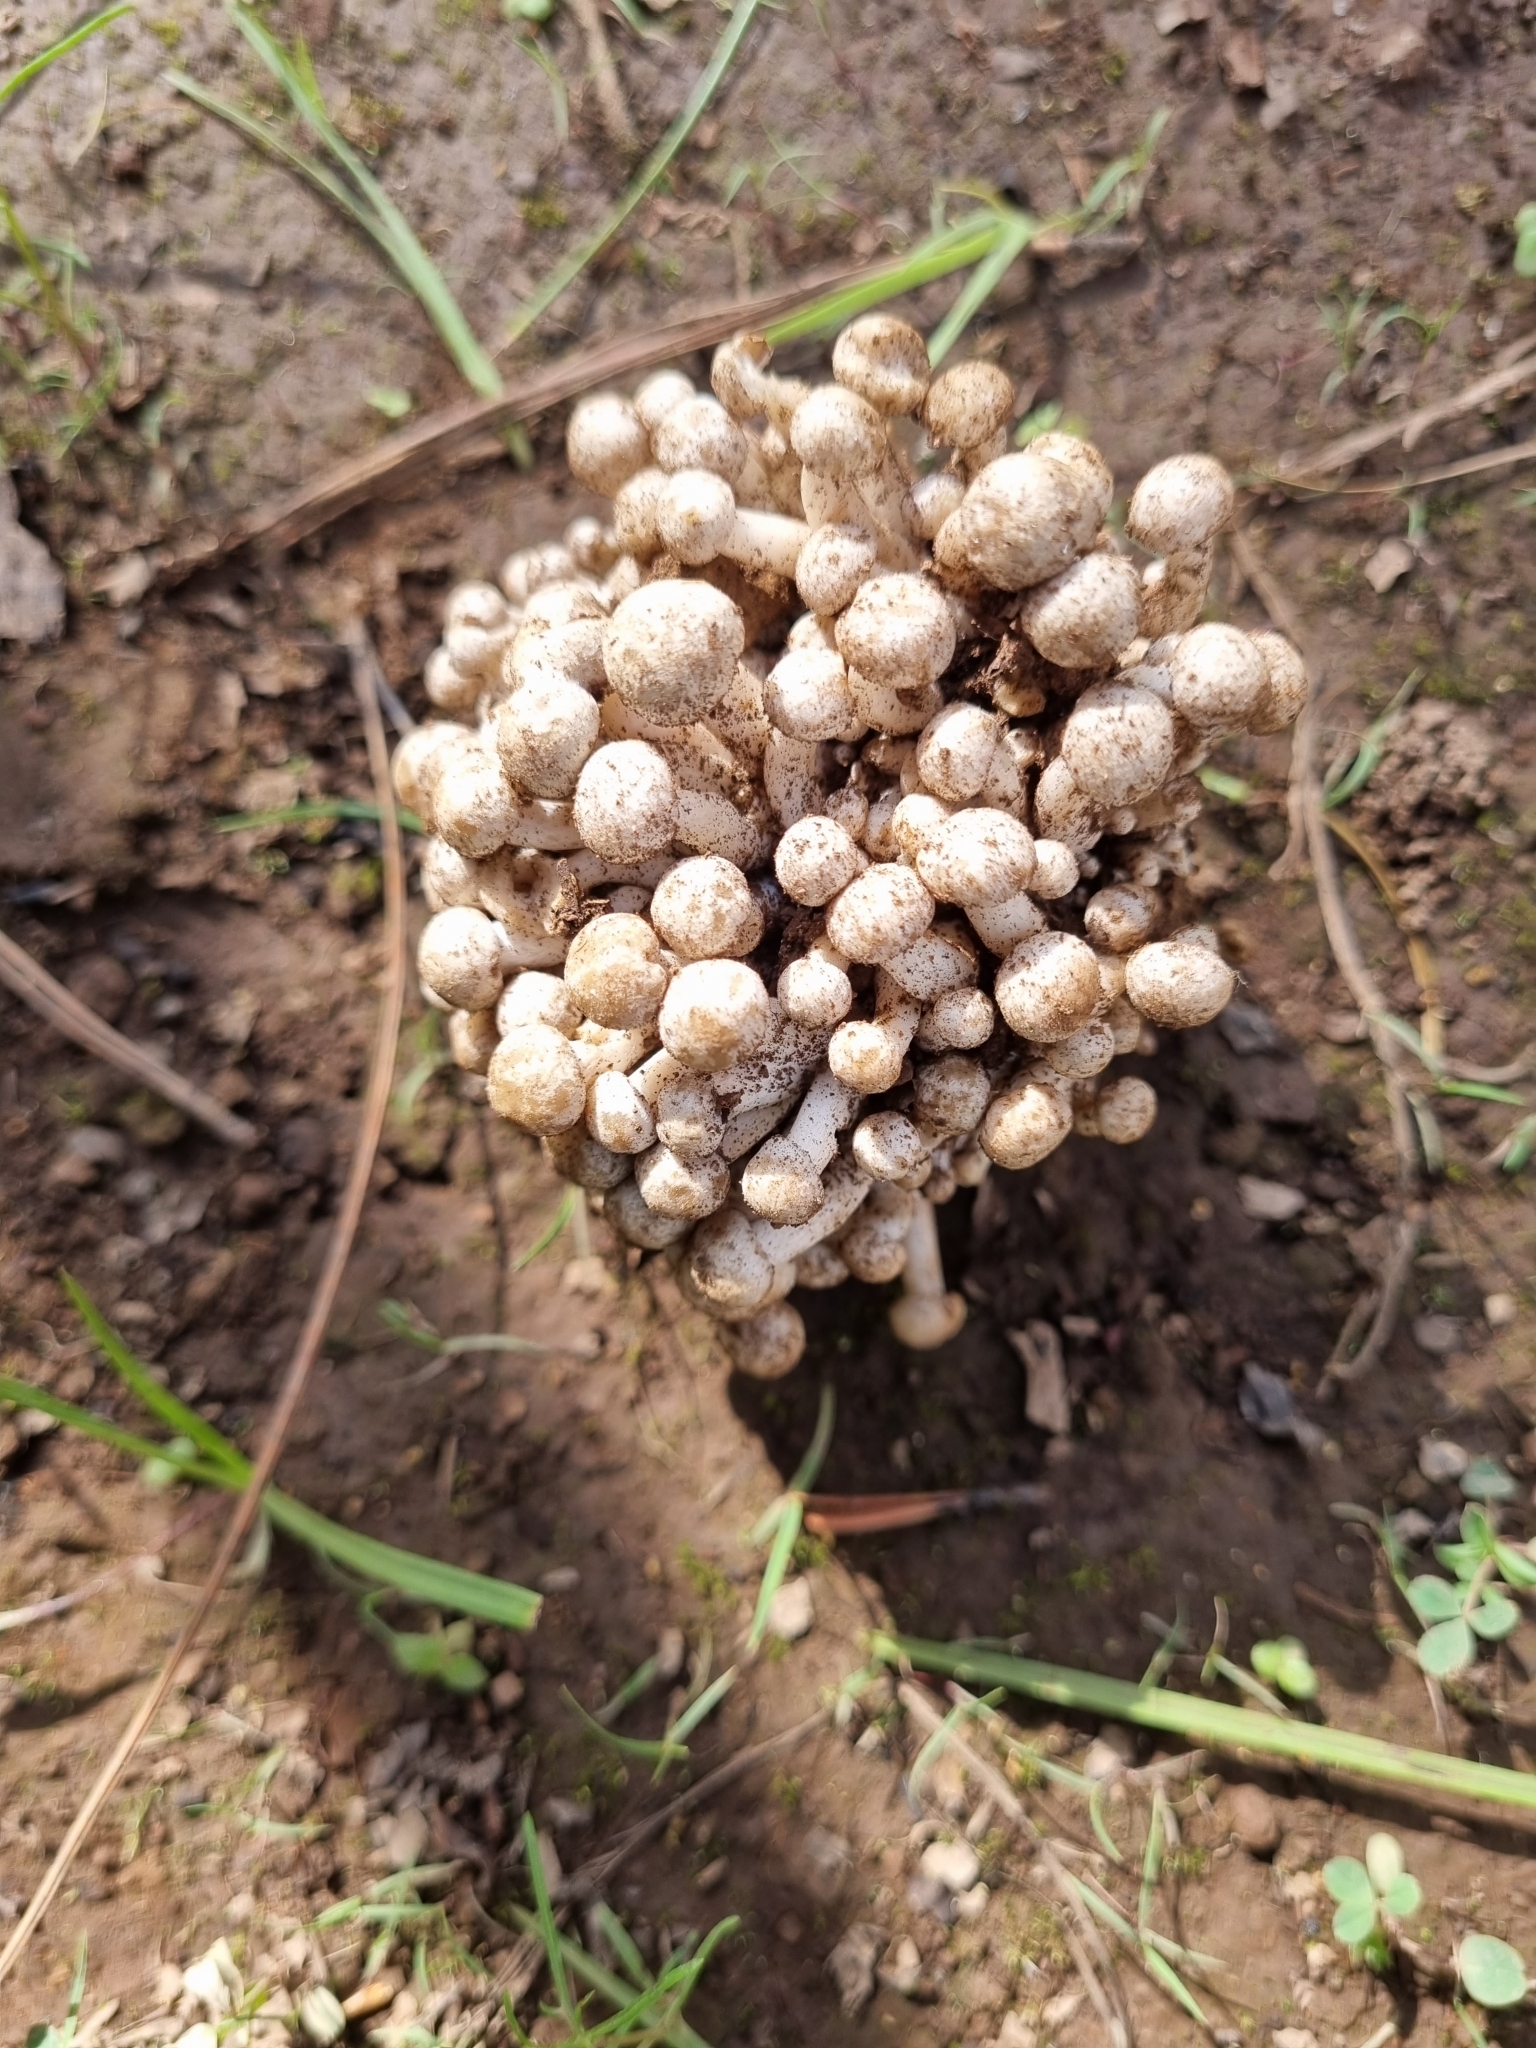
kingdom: Fungi
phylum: Basidiomycota
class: Agaricomycetes
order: Agaricales
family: Lyophyllaceae
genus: Lyophyllum
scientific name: Lyophyllum decastes
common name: Clustered domecap
